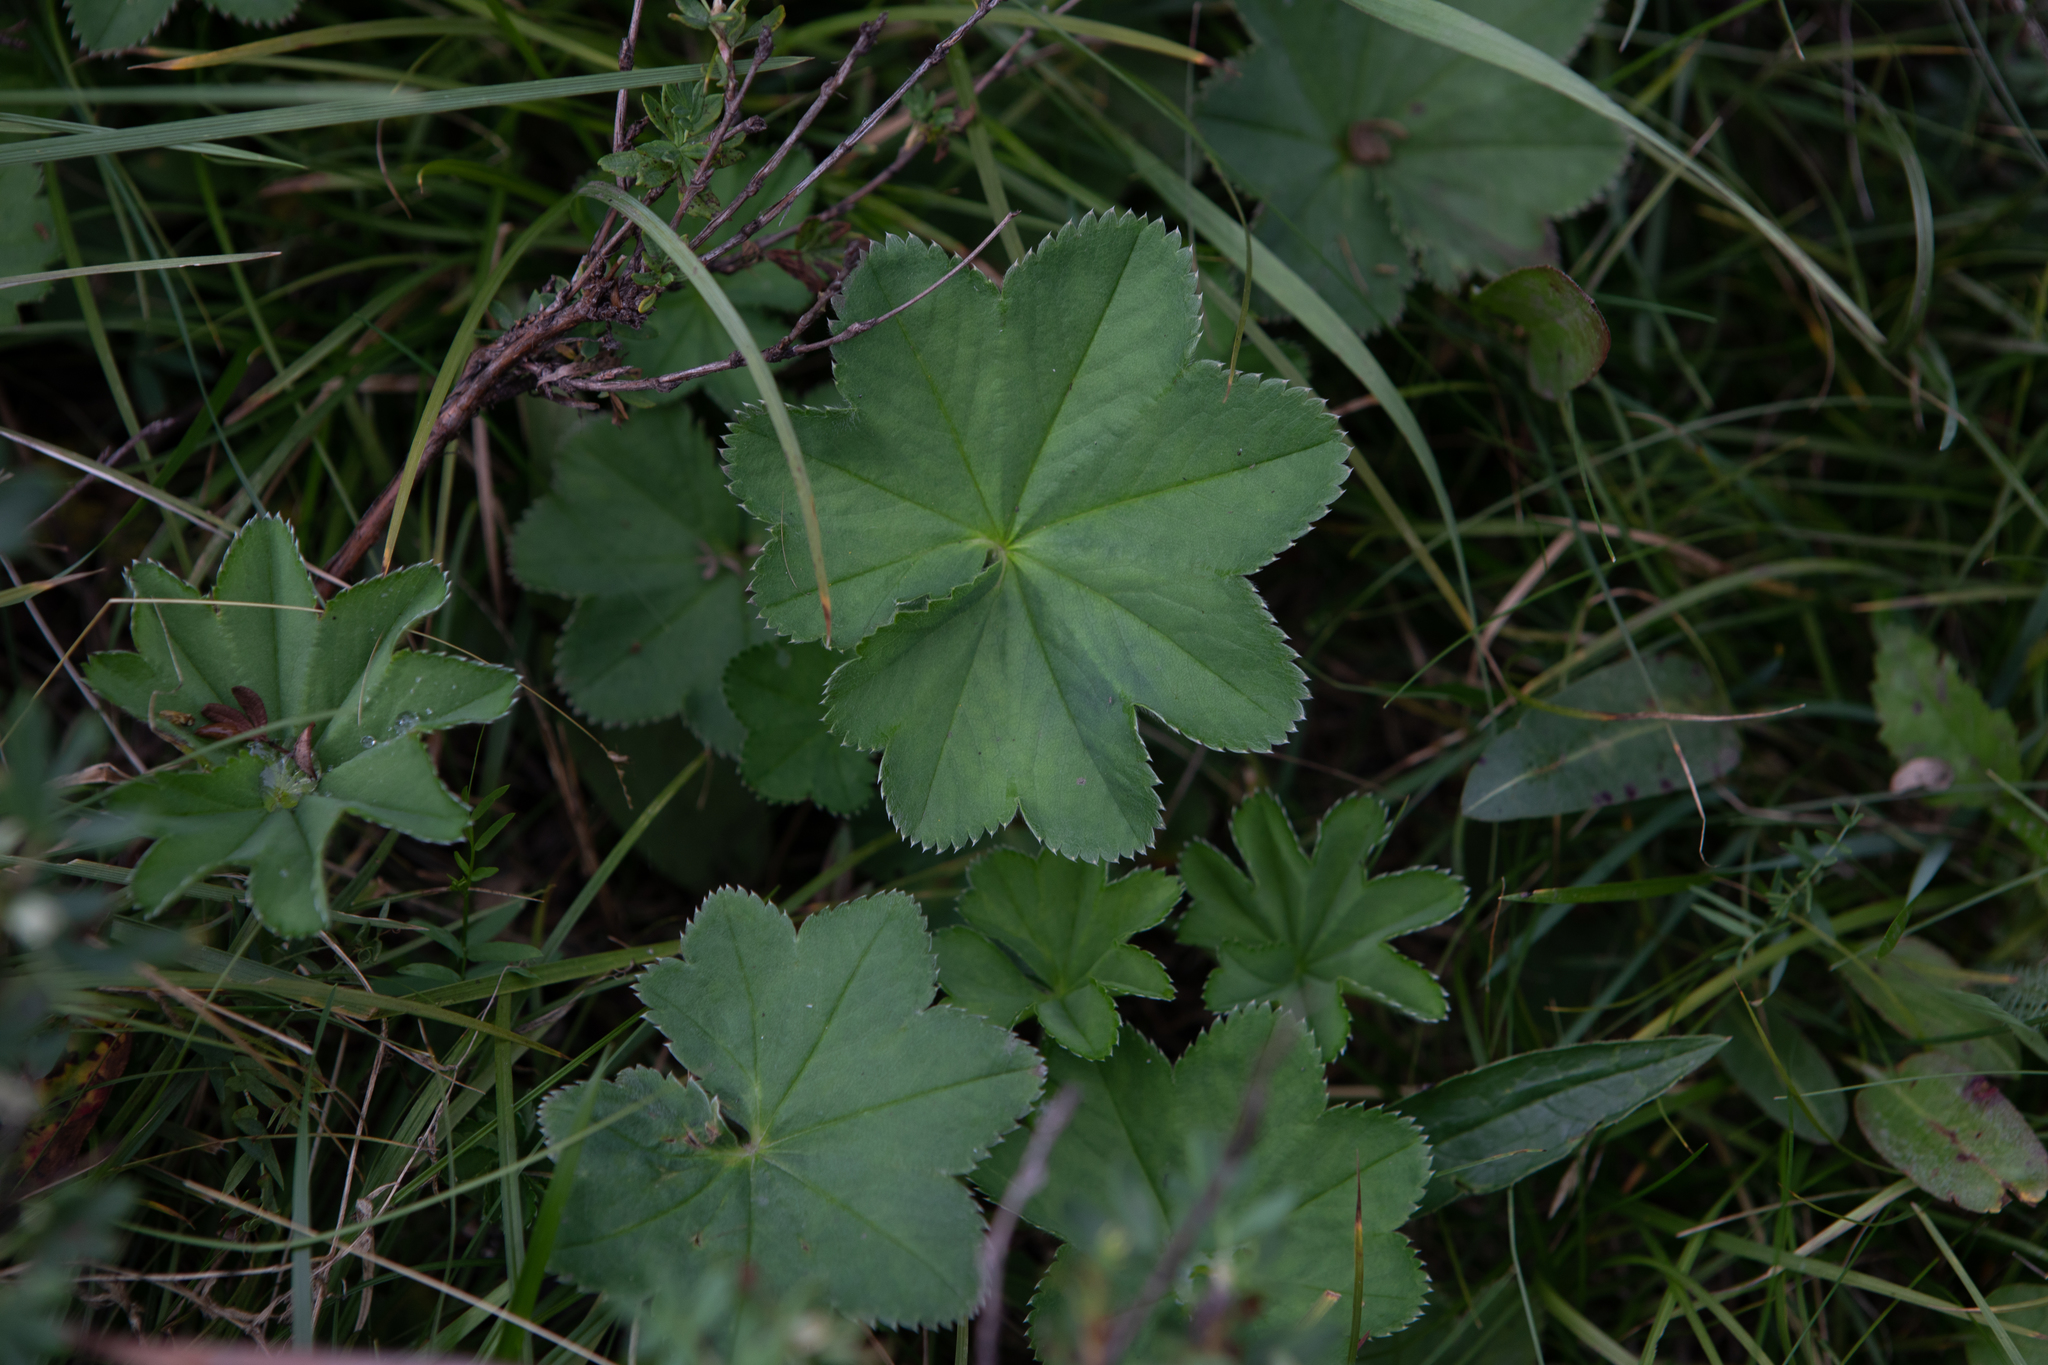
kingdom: Plantae
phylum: Tracheophyta
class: Magnoliopsida
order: Rosales
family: Rosaceae
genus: Alchemilla
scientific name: Alchemilla
